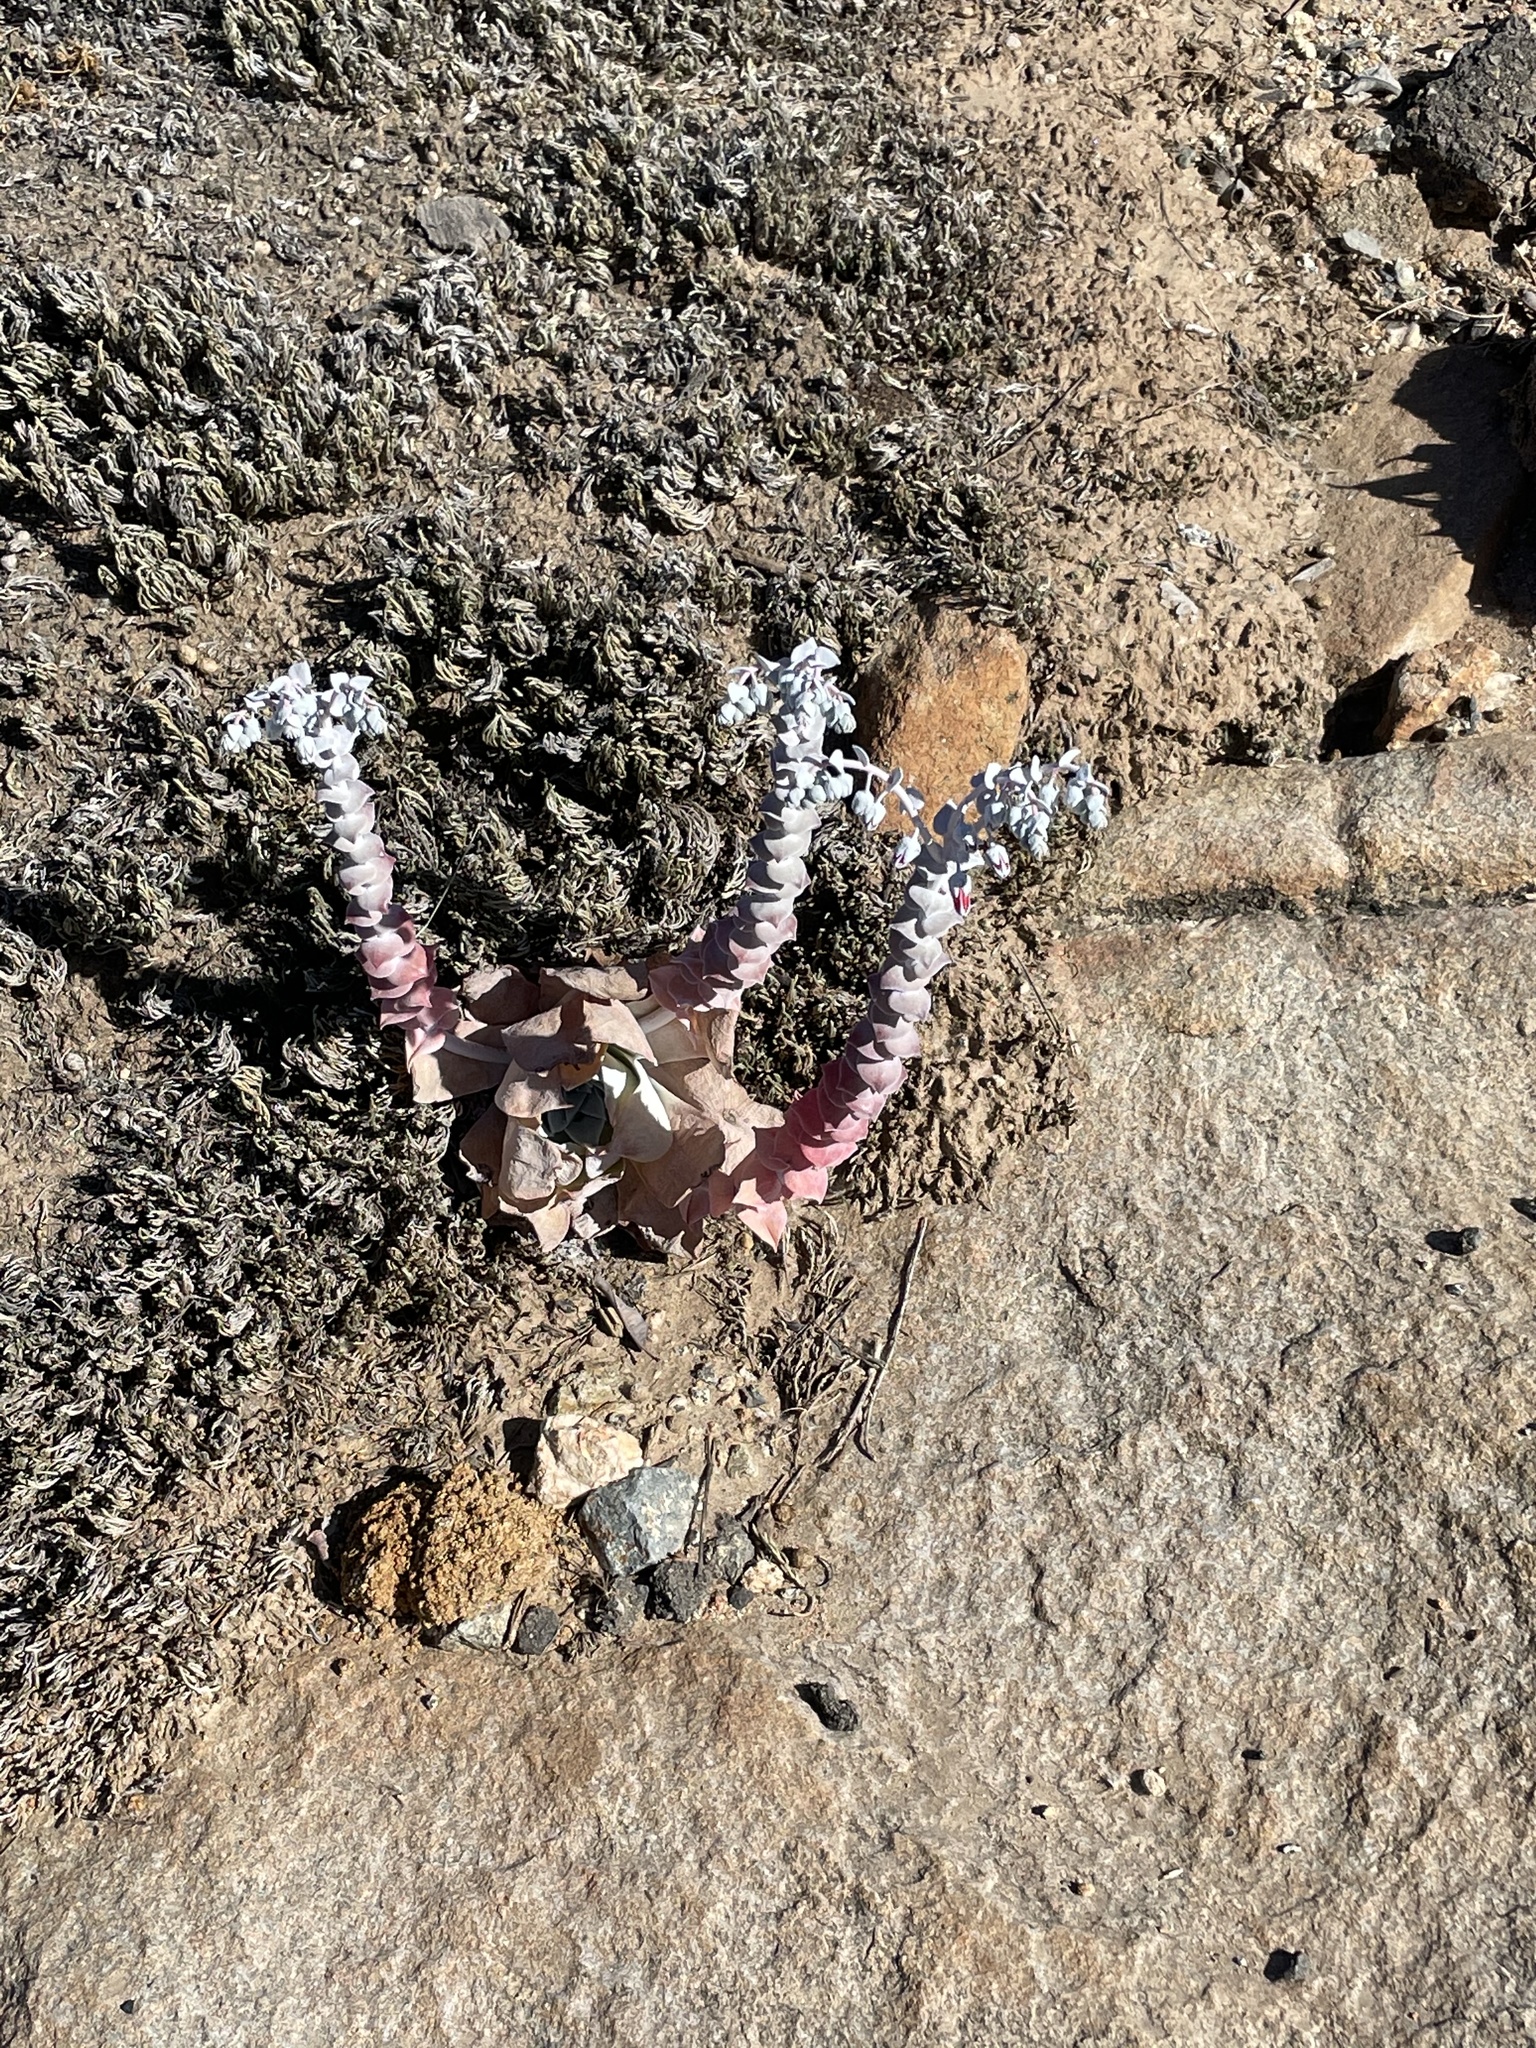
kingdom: Plantae
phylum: Tracheophyta
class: Magnoliopsida
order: Saxifragales
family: Crassulaceae
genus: Dudleya
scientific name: Dudleya pulverulenta
